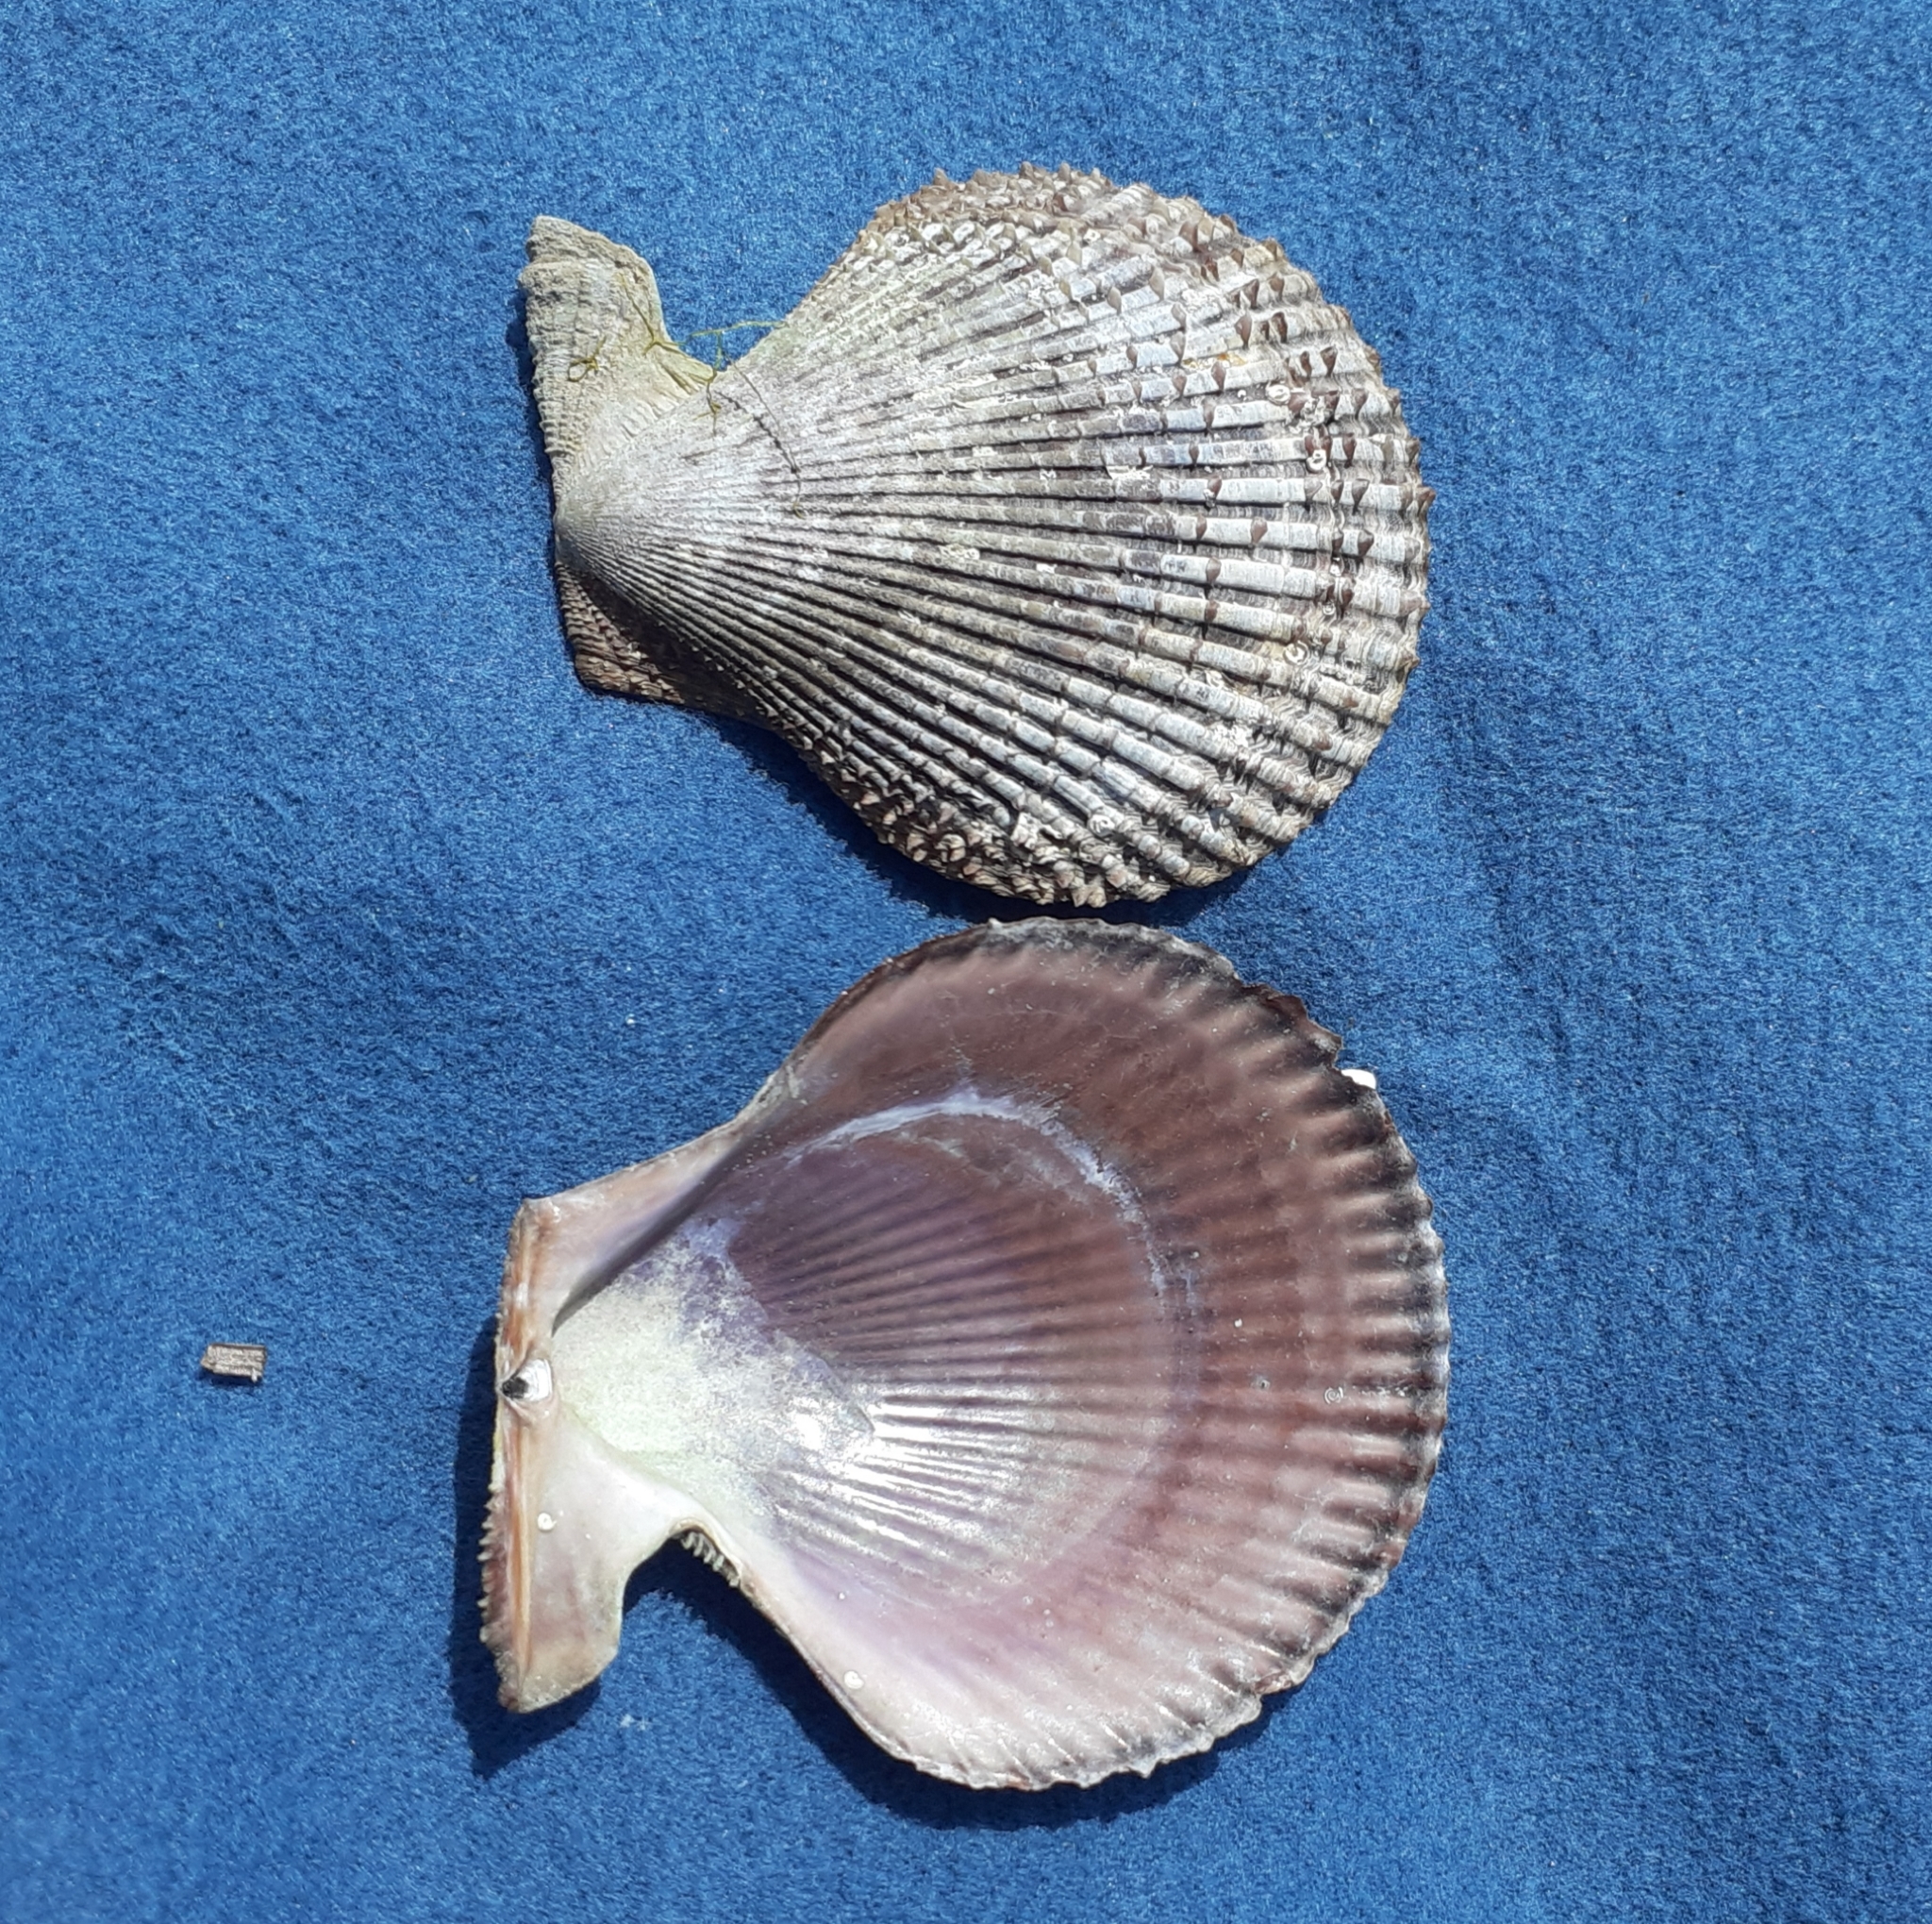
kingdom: Animalia
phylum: Mollusca
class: Bivalvia
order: Pectinida
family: Pectinidae
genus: Mimachlamys
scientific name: Mimachlamys varia
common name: Variegated scallop
